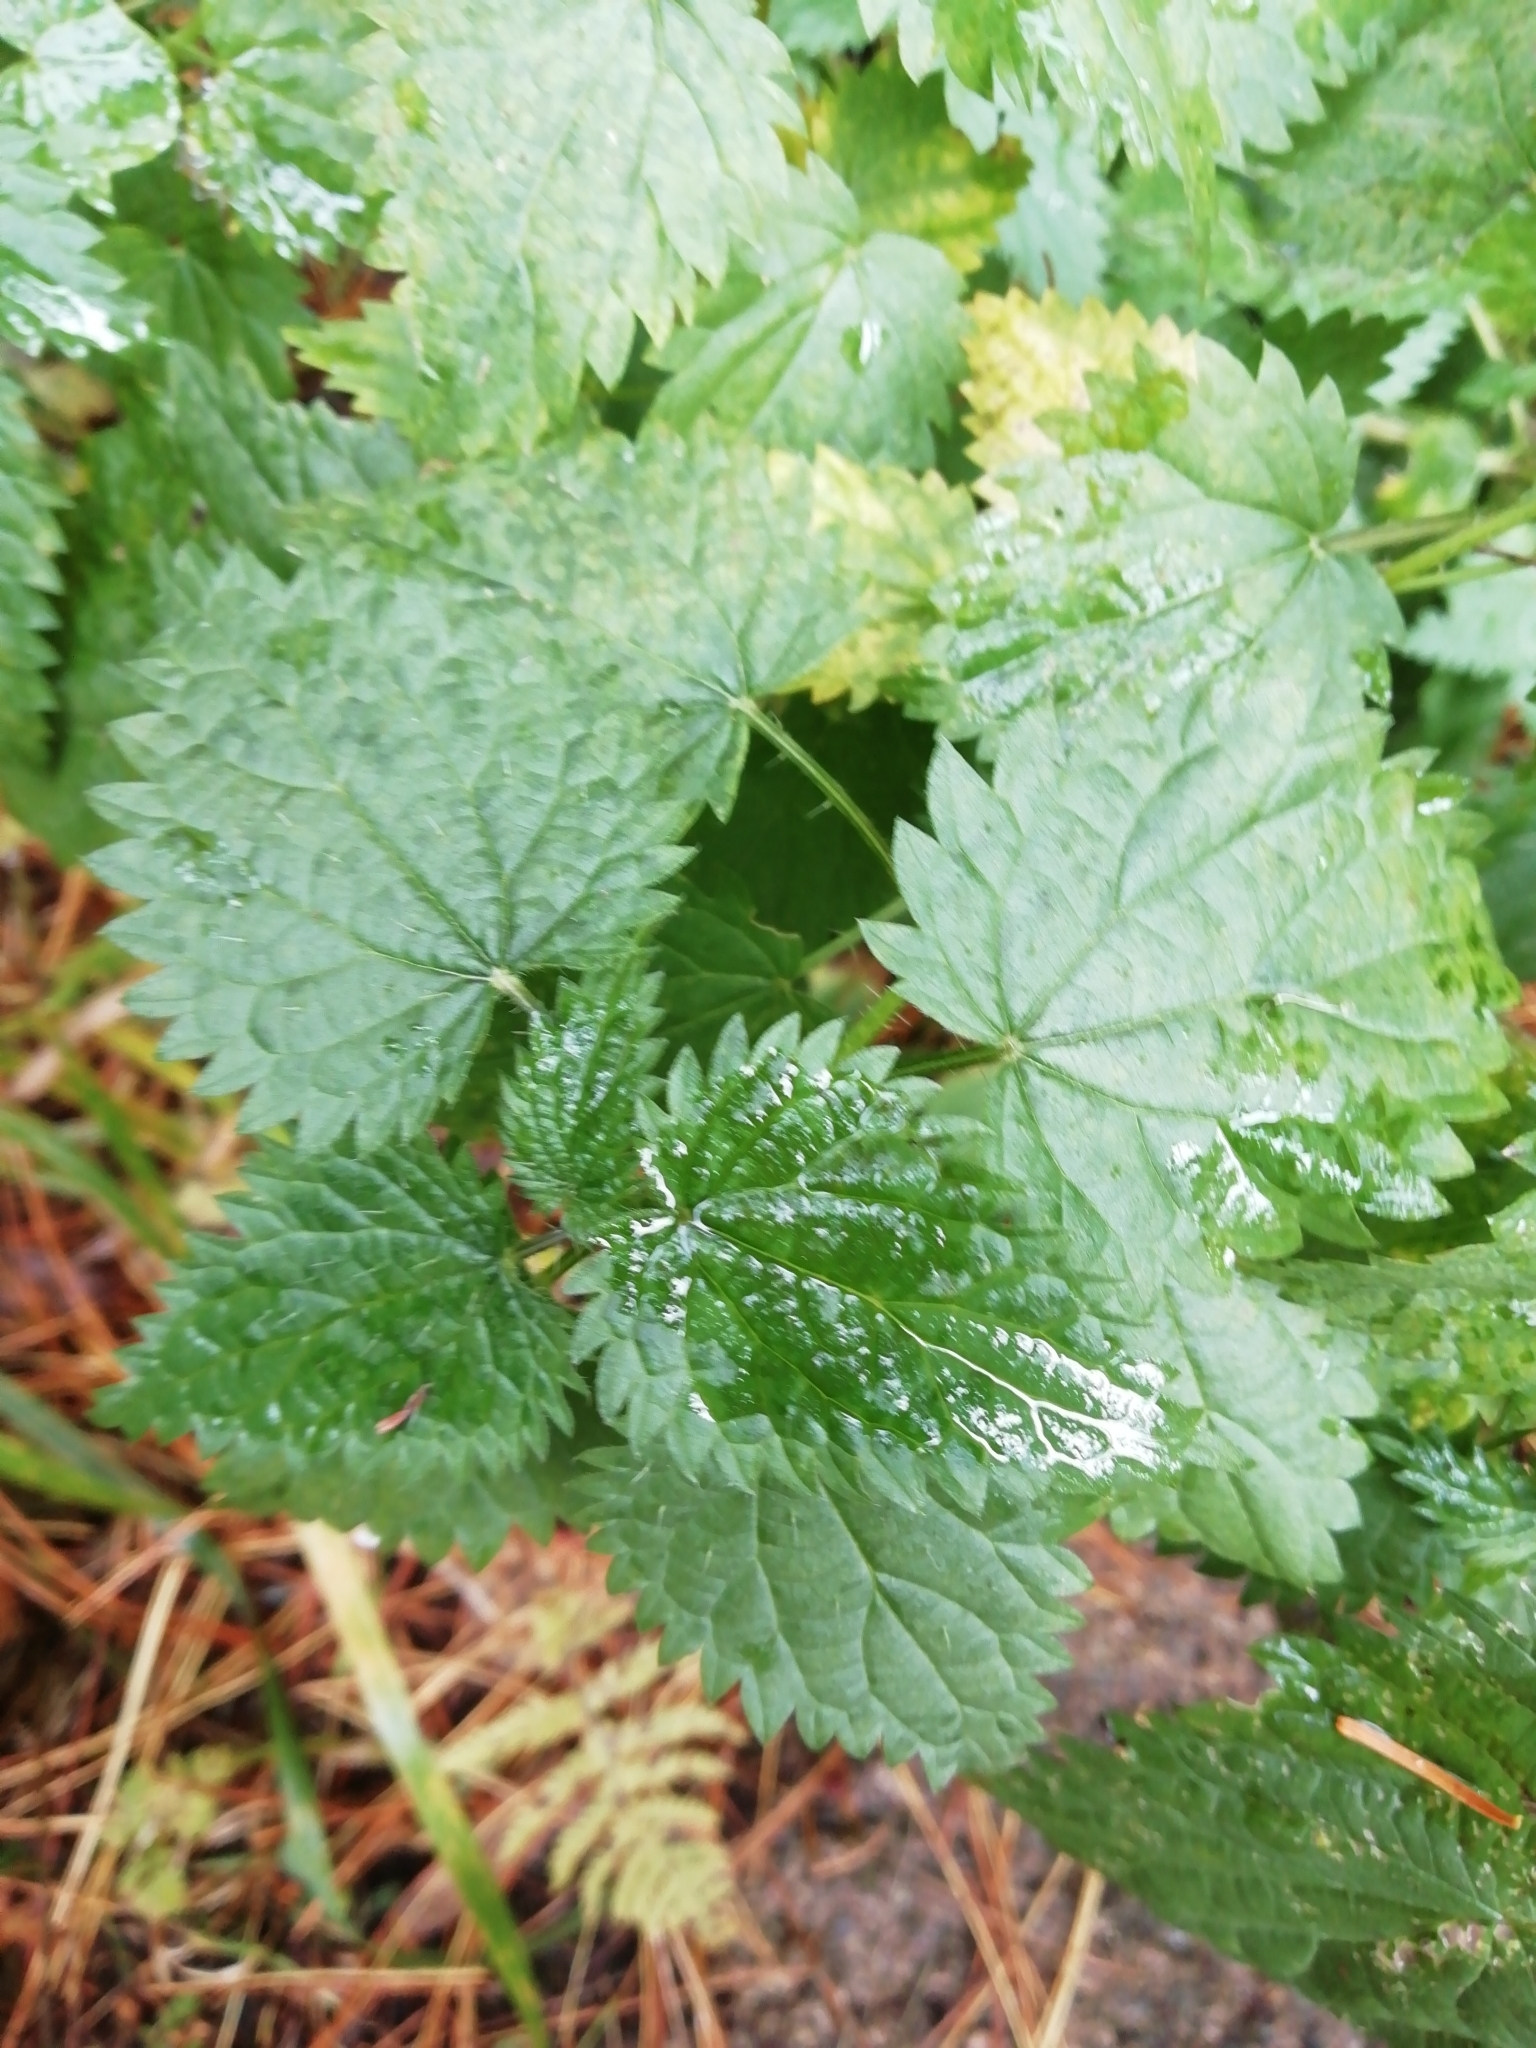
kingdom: Plantae
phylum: Tracheophyta
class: Magnoliopsida
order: Rosales
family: Urticaceae
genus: Urtica
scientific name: Urtica dioica
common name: Common nettle
